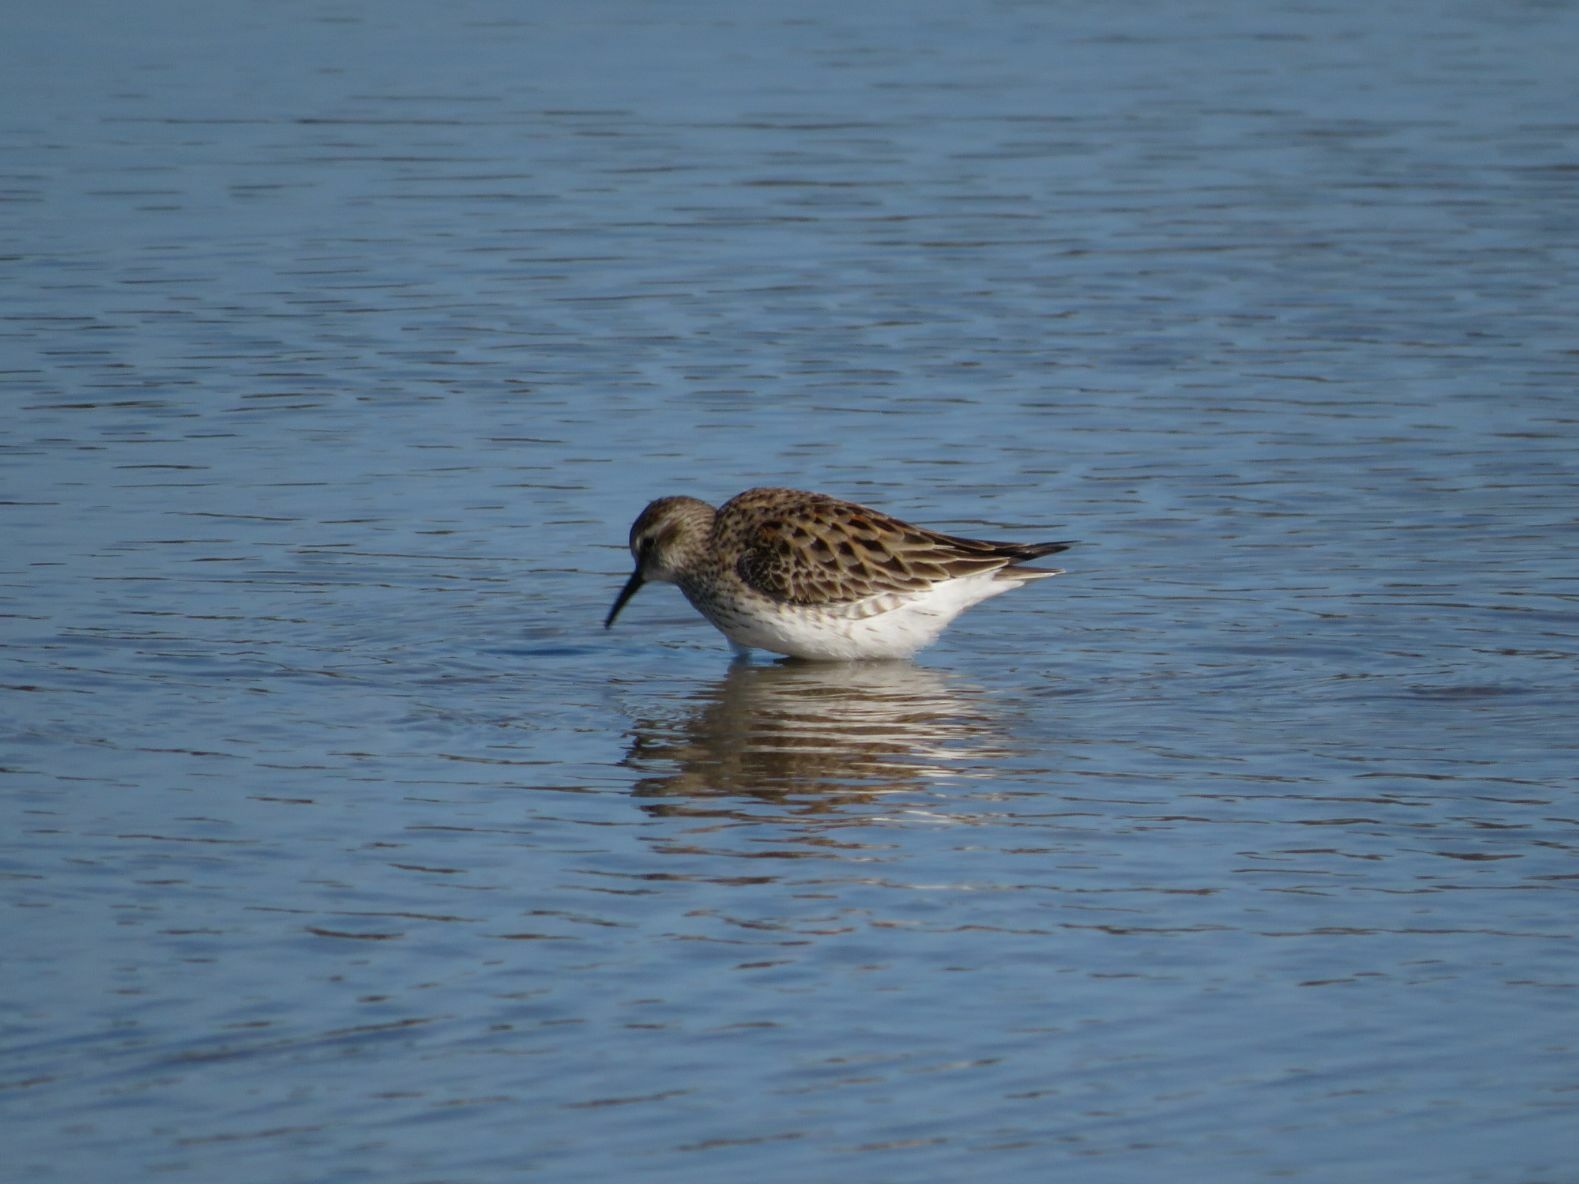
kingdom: Animalia
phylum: Chordata
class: Aves
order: Charadriiformes
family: Scolopacidae
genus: Calidris
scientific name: Calidris fuscicollis
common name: White-rumped sandpiper
